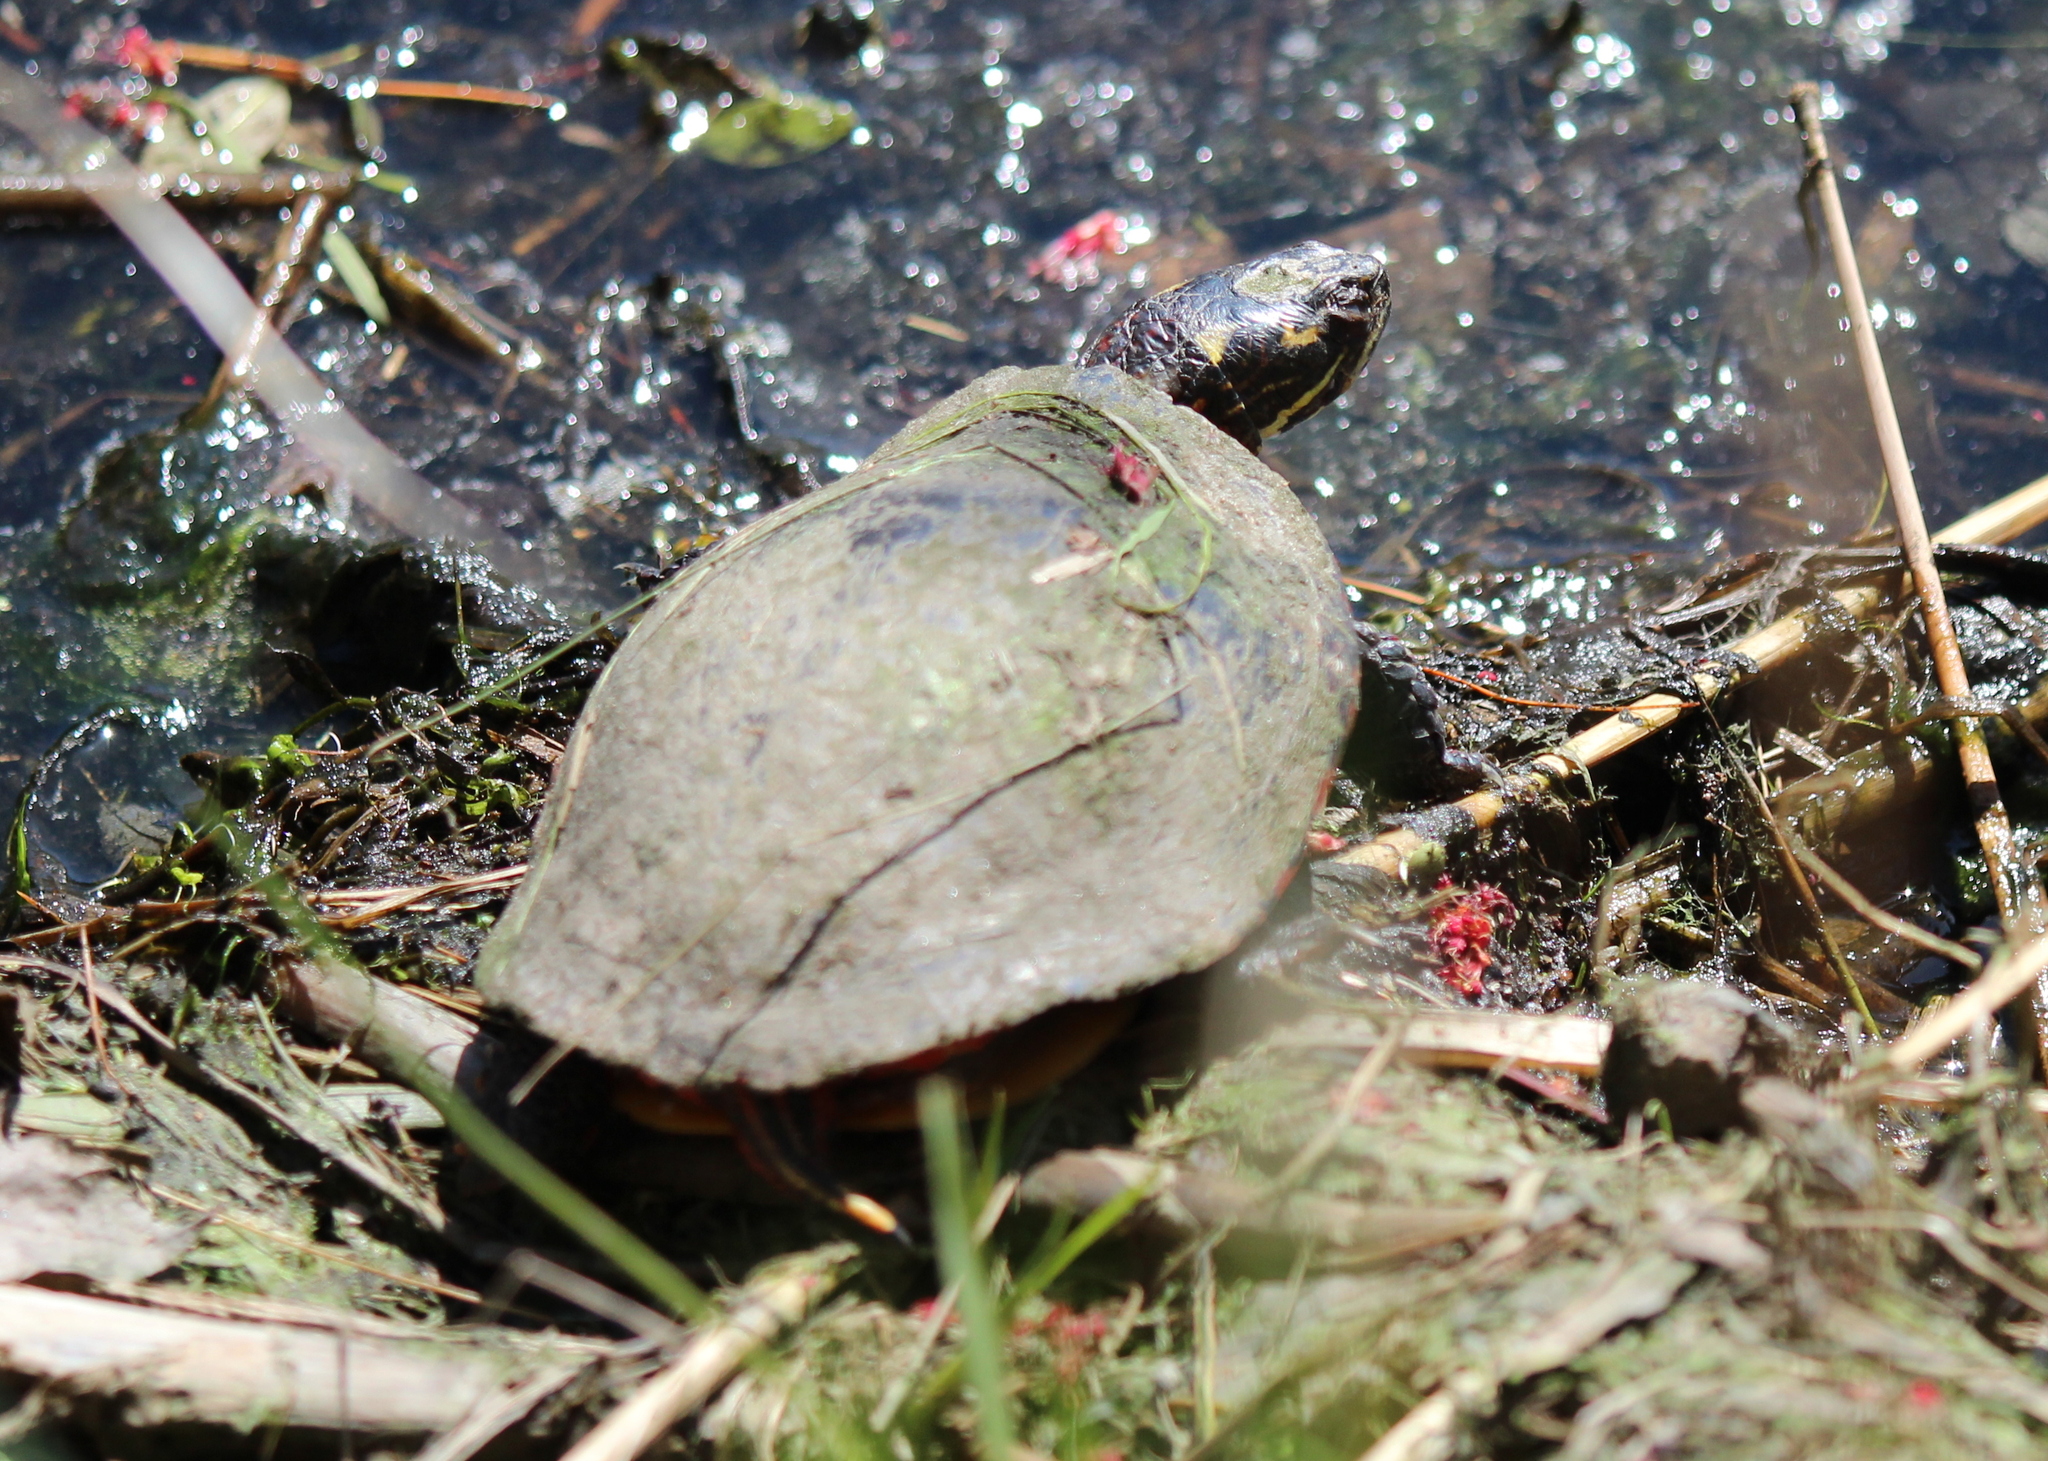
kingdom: Animalia
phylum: Chordata
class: Testudines
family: Emydidae
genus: Chrysemys
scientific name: Chrysemys picta
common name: Painted turtle
